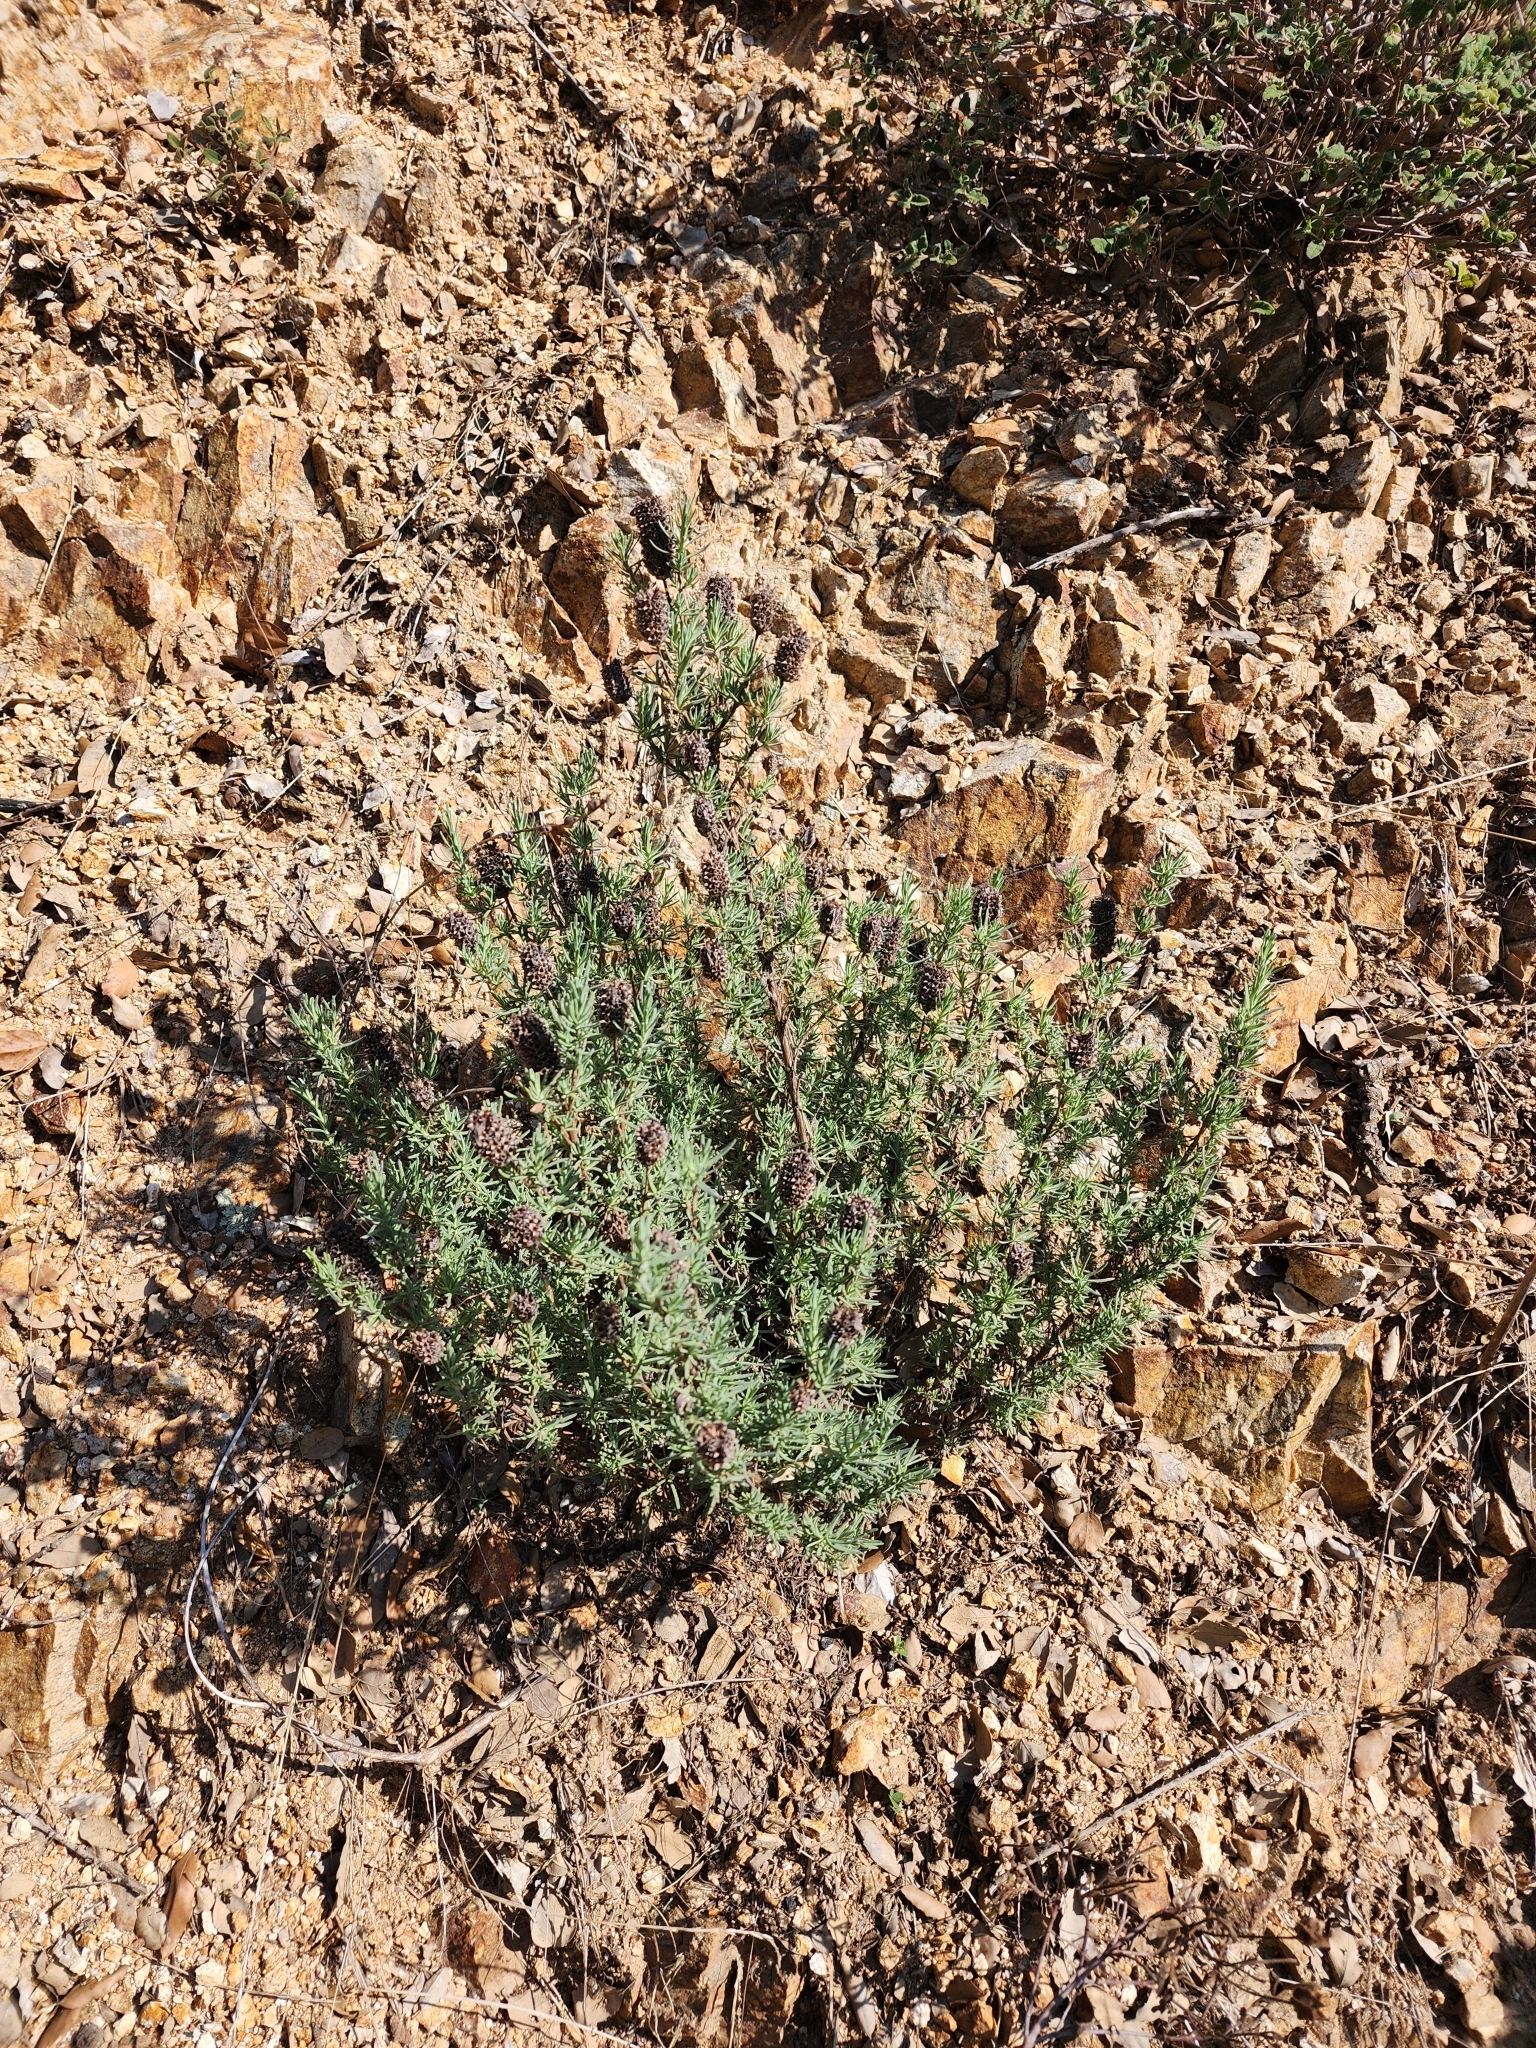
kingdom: Plantae
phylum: Tracheophyta
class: Magnoliopsida
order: Lamiales
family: Lamiaceae
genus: Lavandula
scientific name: Lavandula stoechas
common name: French lavender
